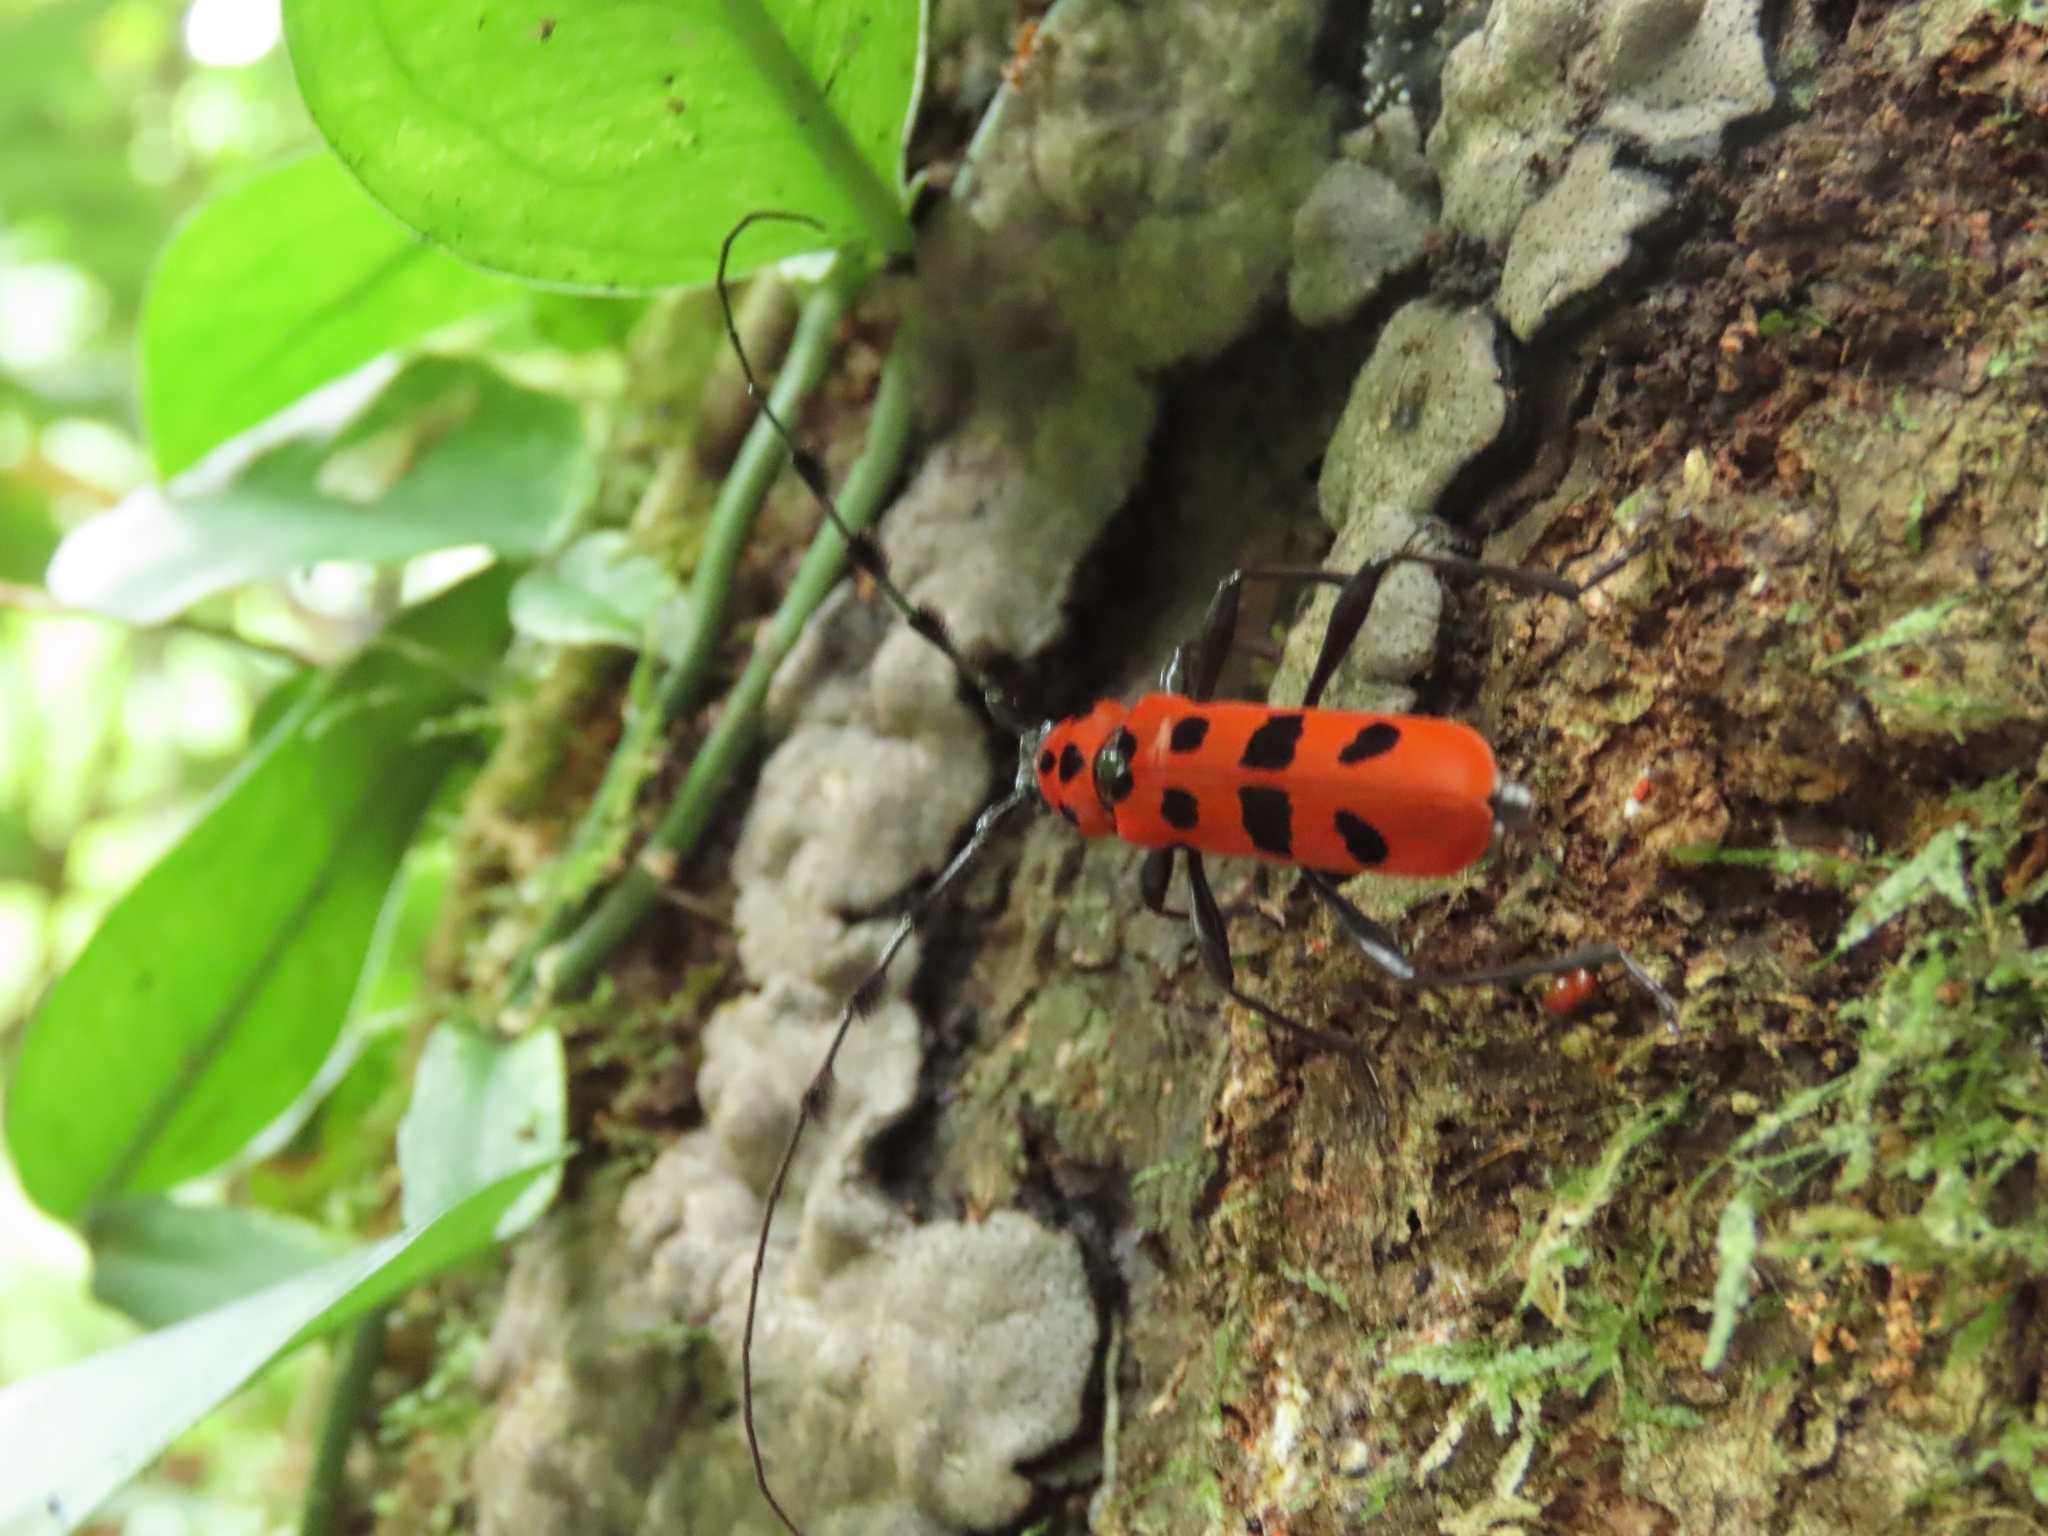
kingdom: Animalia
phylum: Arthropoda
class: Insecta
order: Coleoptera
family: Cerambycidae
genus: Rosalia
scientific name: Rosalia lesnei
